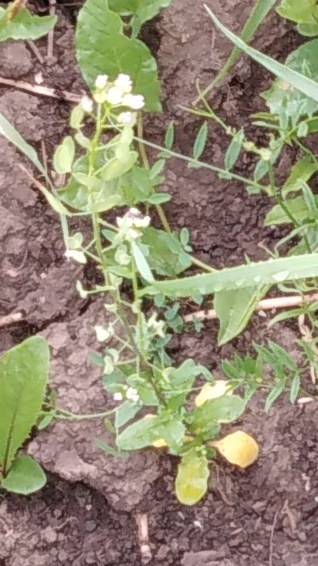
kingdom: Plantae
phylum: Tracheophyta
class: Magnoliopsida
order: Brassicales
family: Brassicaceae
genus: Thlaspi
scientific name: Thlaspi arvense
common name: Field pennycress
